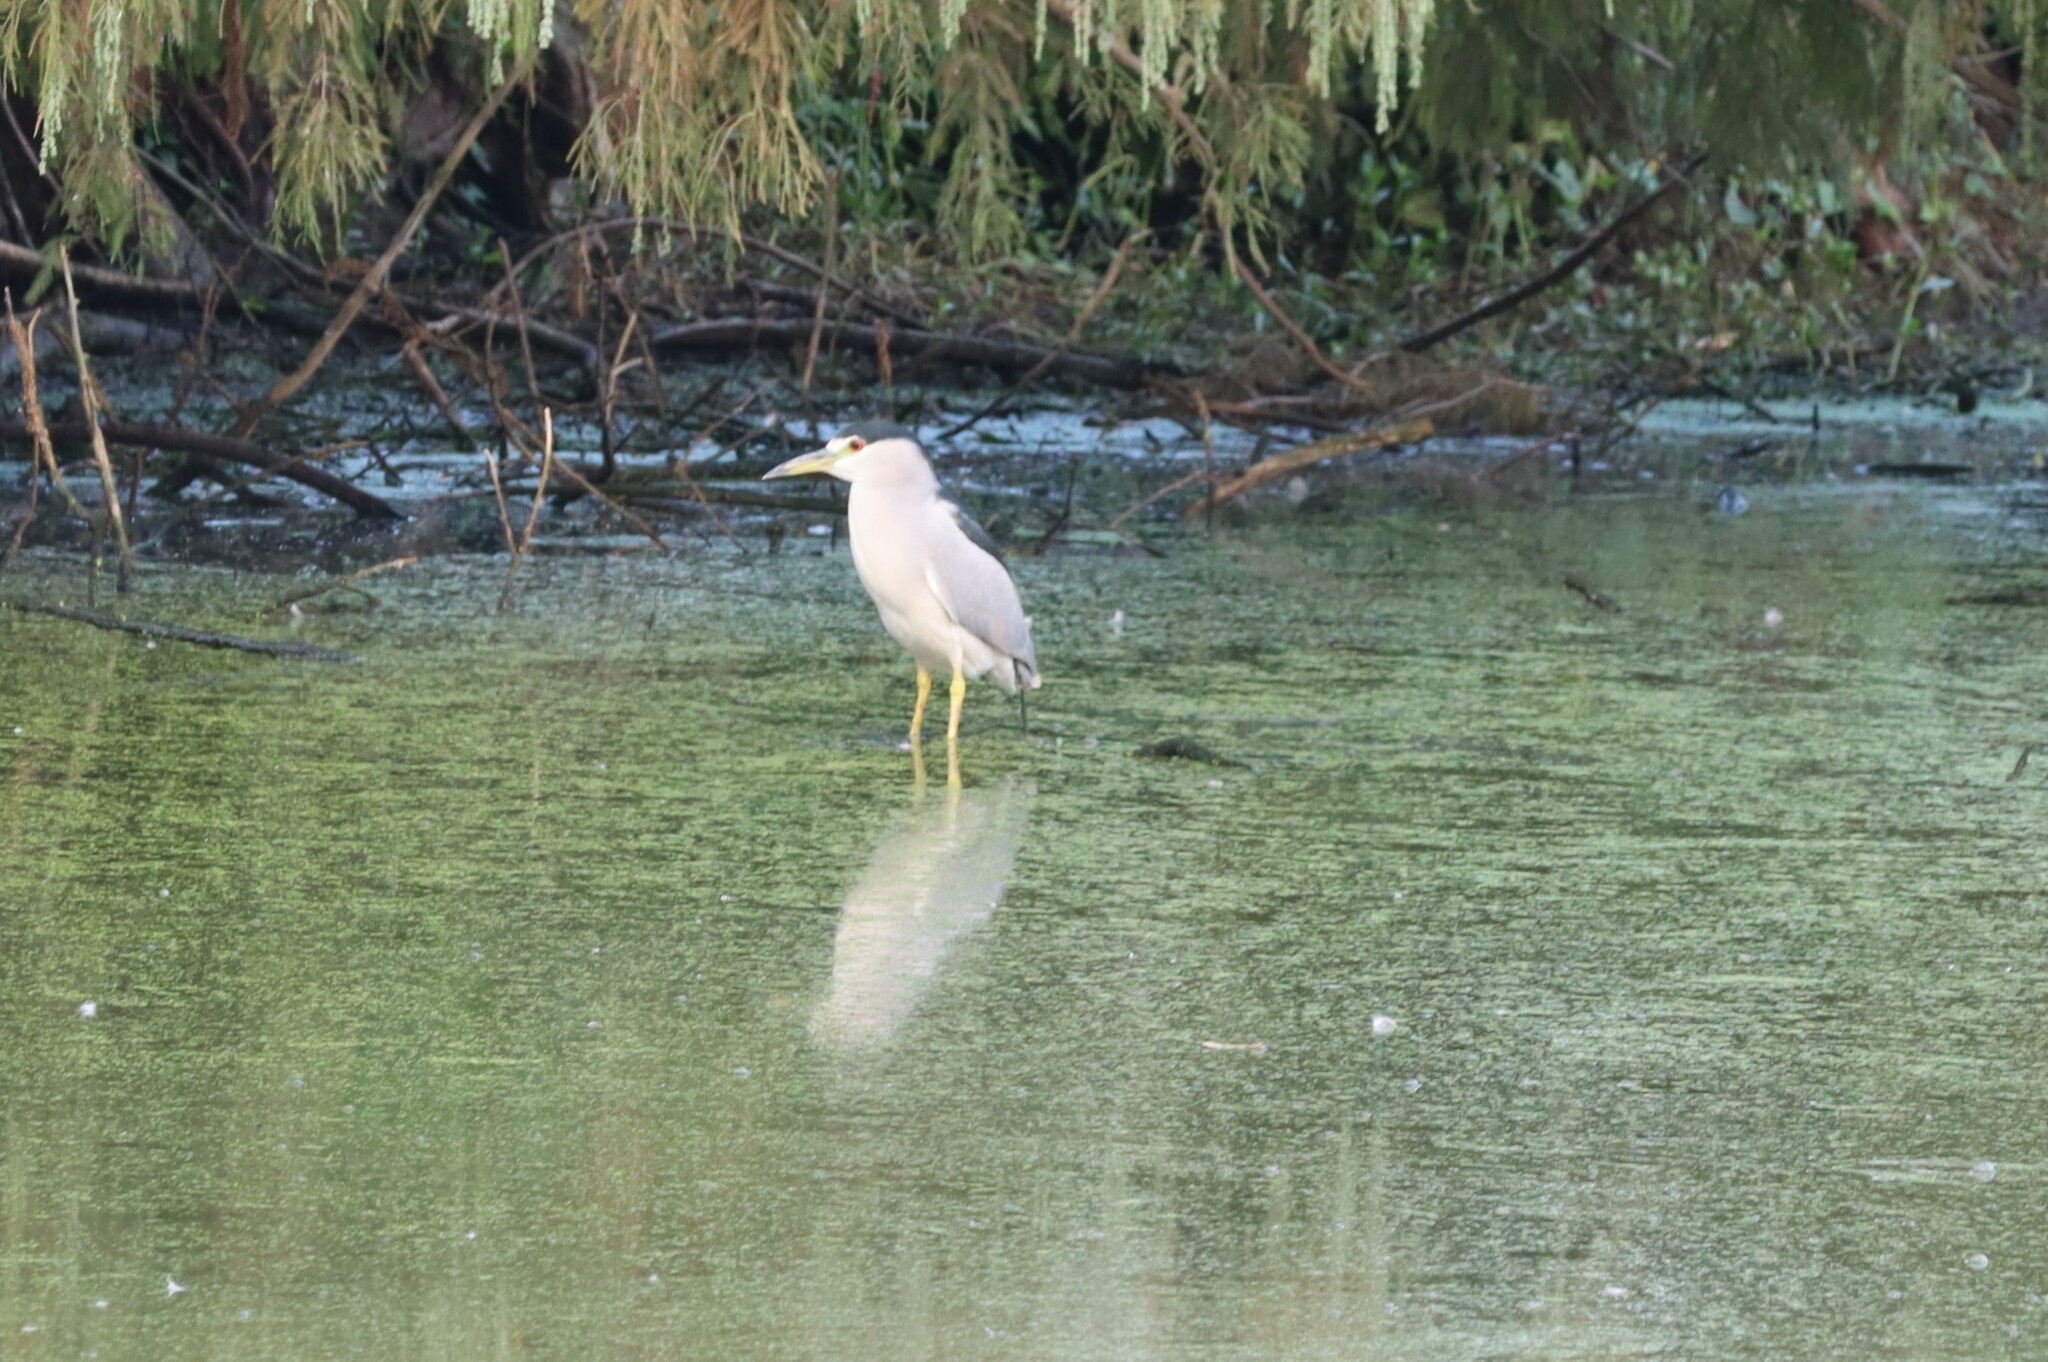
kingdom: Animalia
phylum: Chordata
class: Aves
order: Pelecaniformes
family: Ardeidae
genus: Nycticorax
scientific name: Nycticorax nycticorax
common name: Black-crowned night heron
